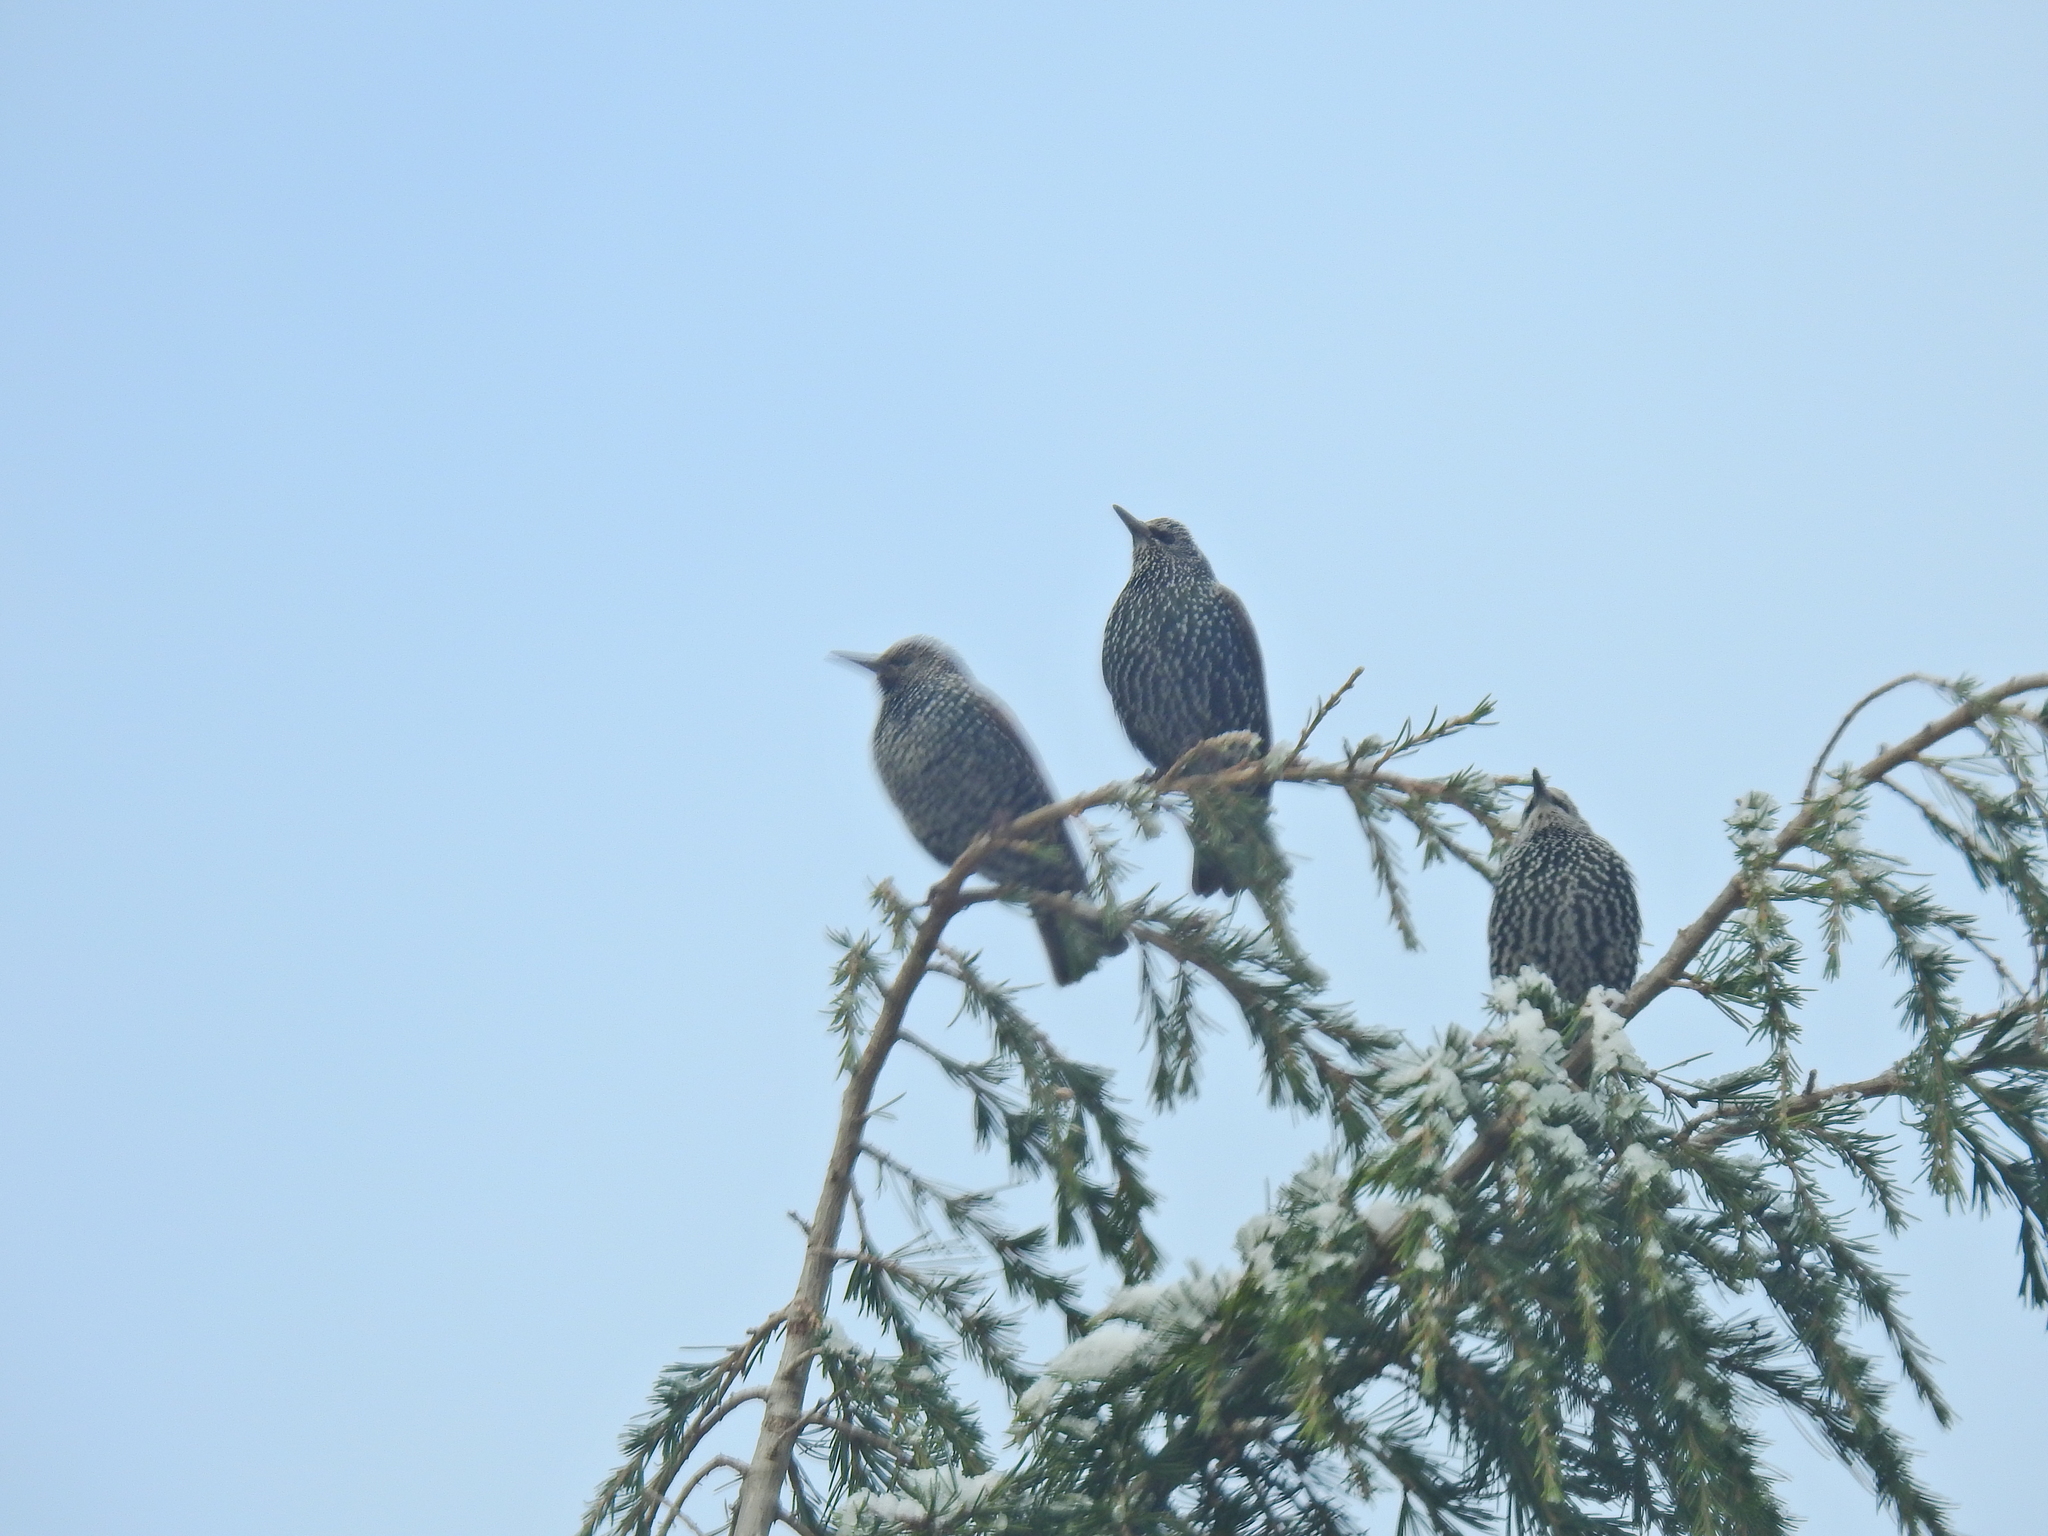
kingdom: Animalia
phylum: Chordata
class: Aves
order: Passeriformes
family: Sturnidae
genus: Sturnus
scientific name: Sturnus vulgaris
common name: Common starling
